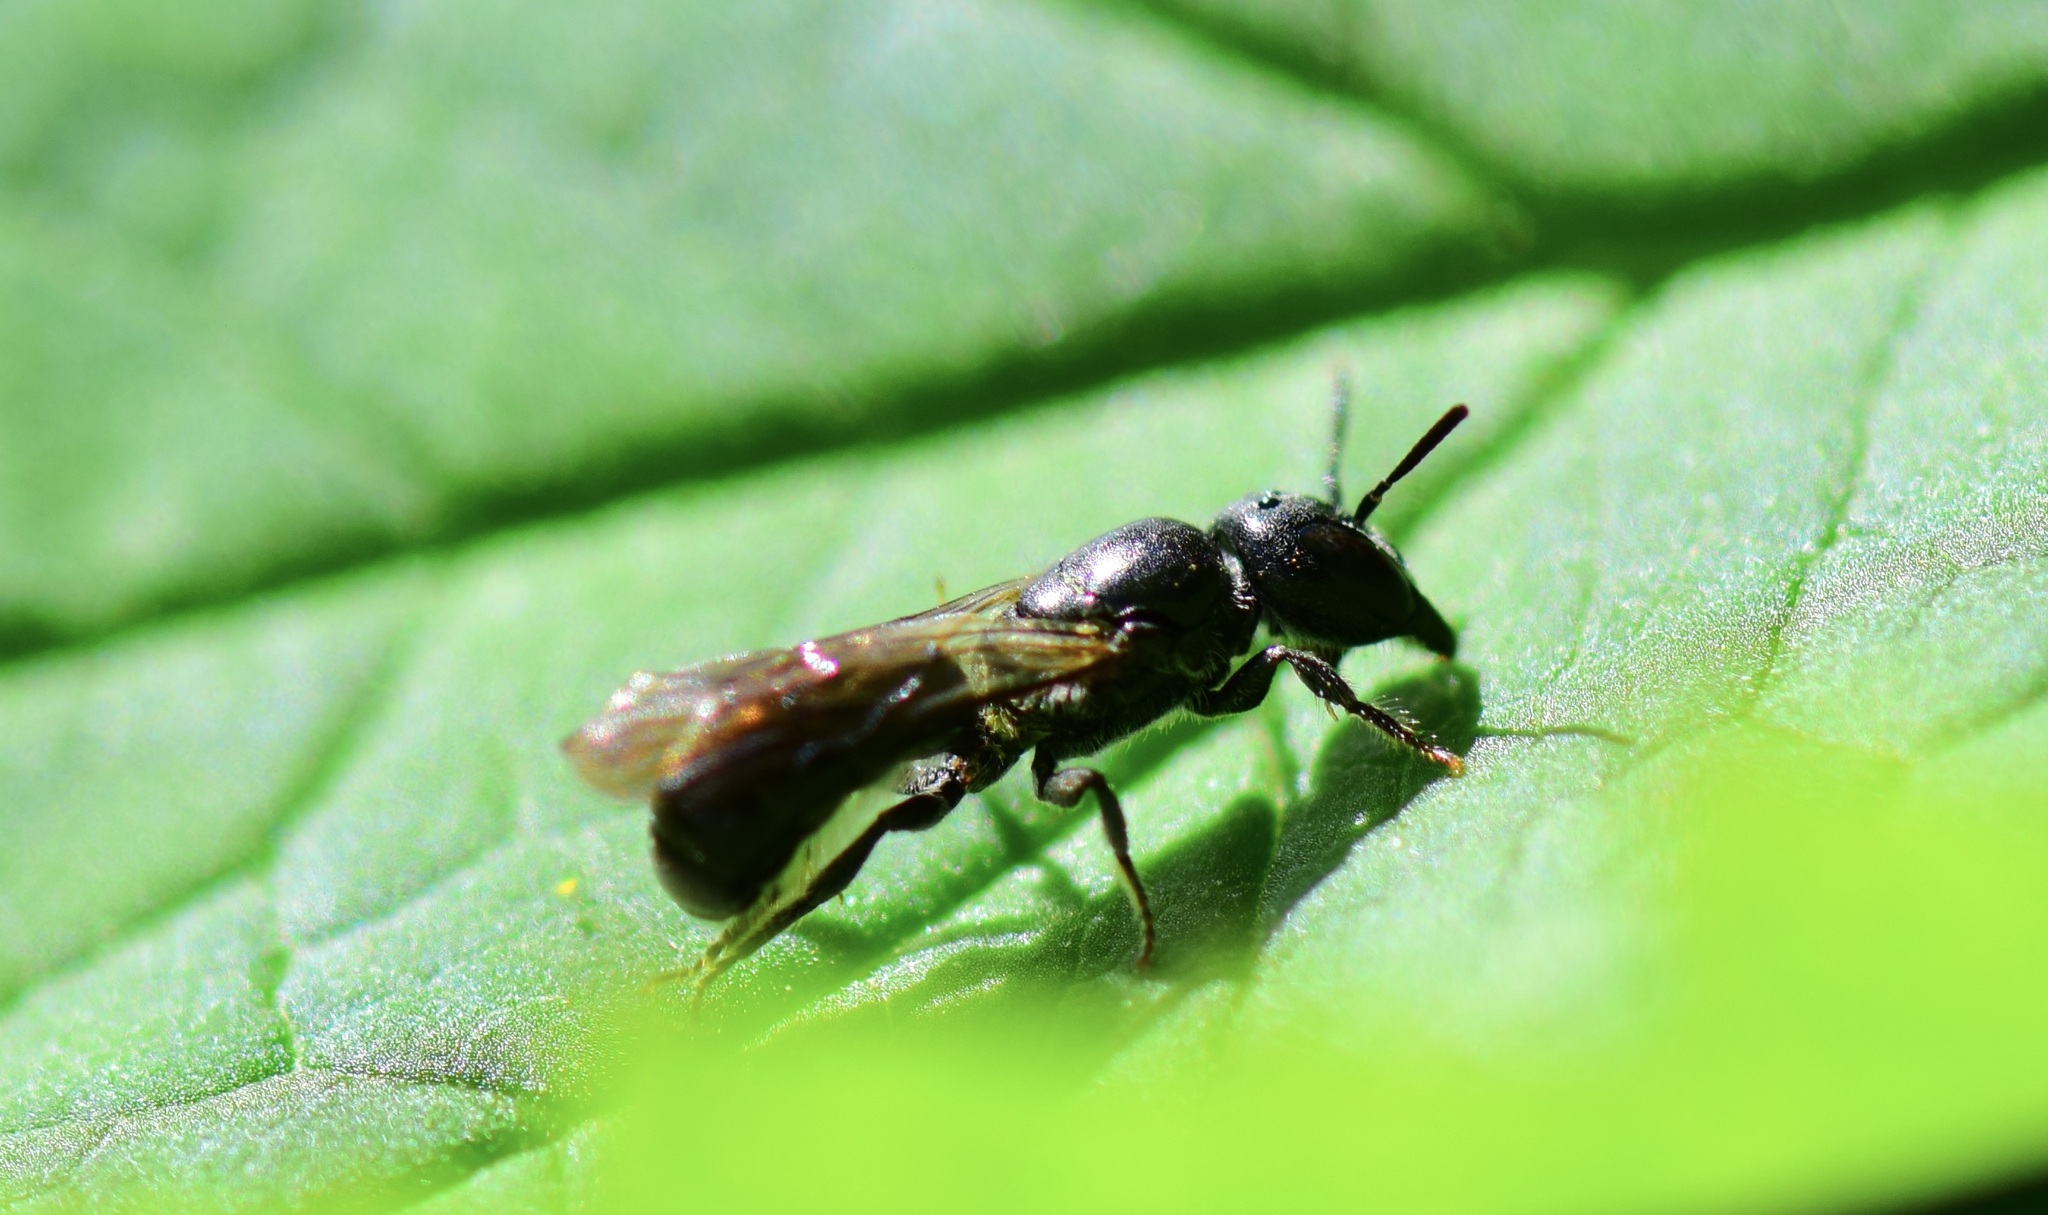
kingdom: Animalia
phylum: Arthropoda
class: Insecta
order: Hymenoptera
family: Megachilidae
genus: Chelostoma
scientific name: Chelostoma philadelphi
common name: Mock-orange scissor bee
